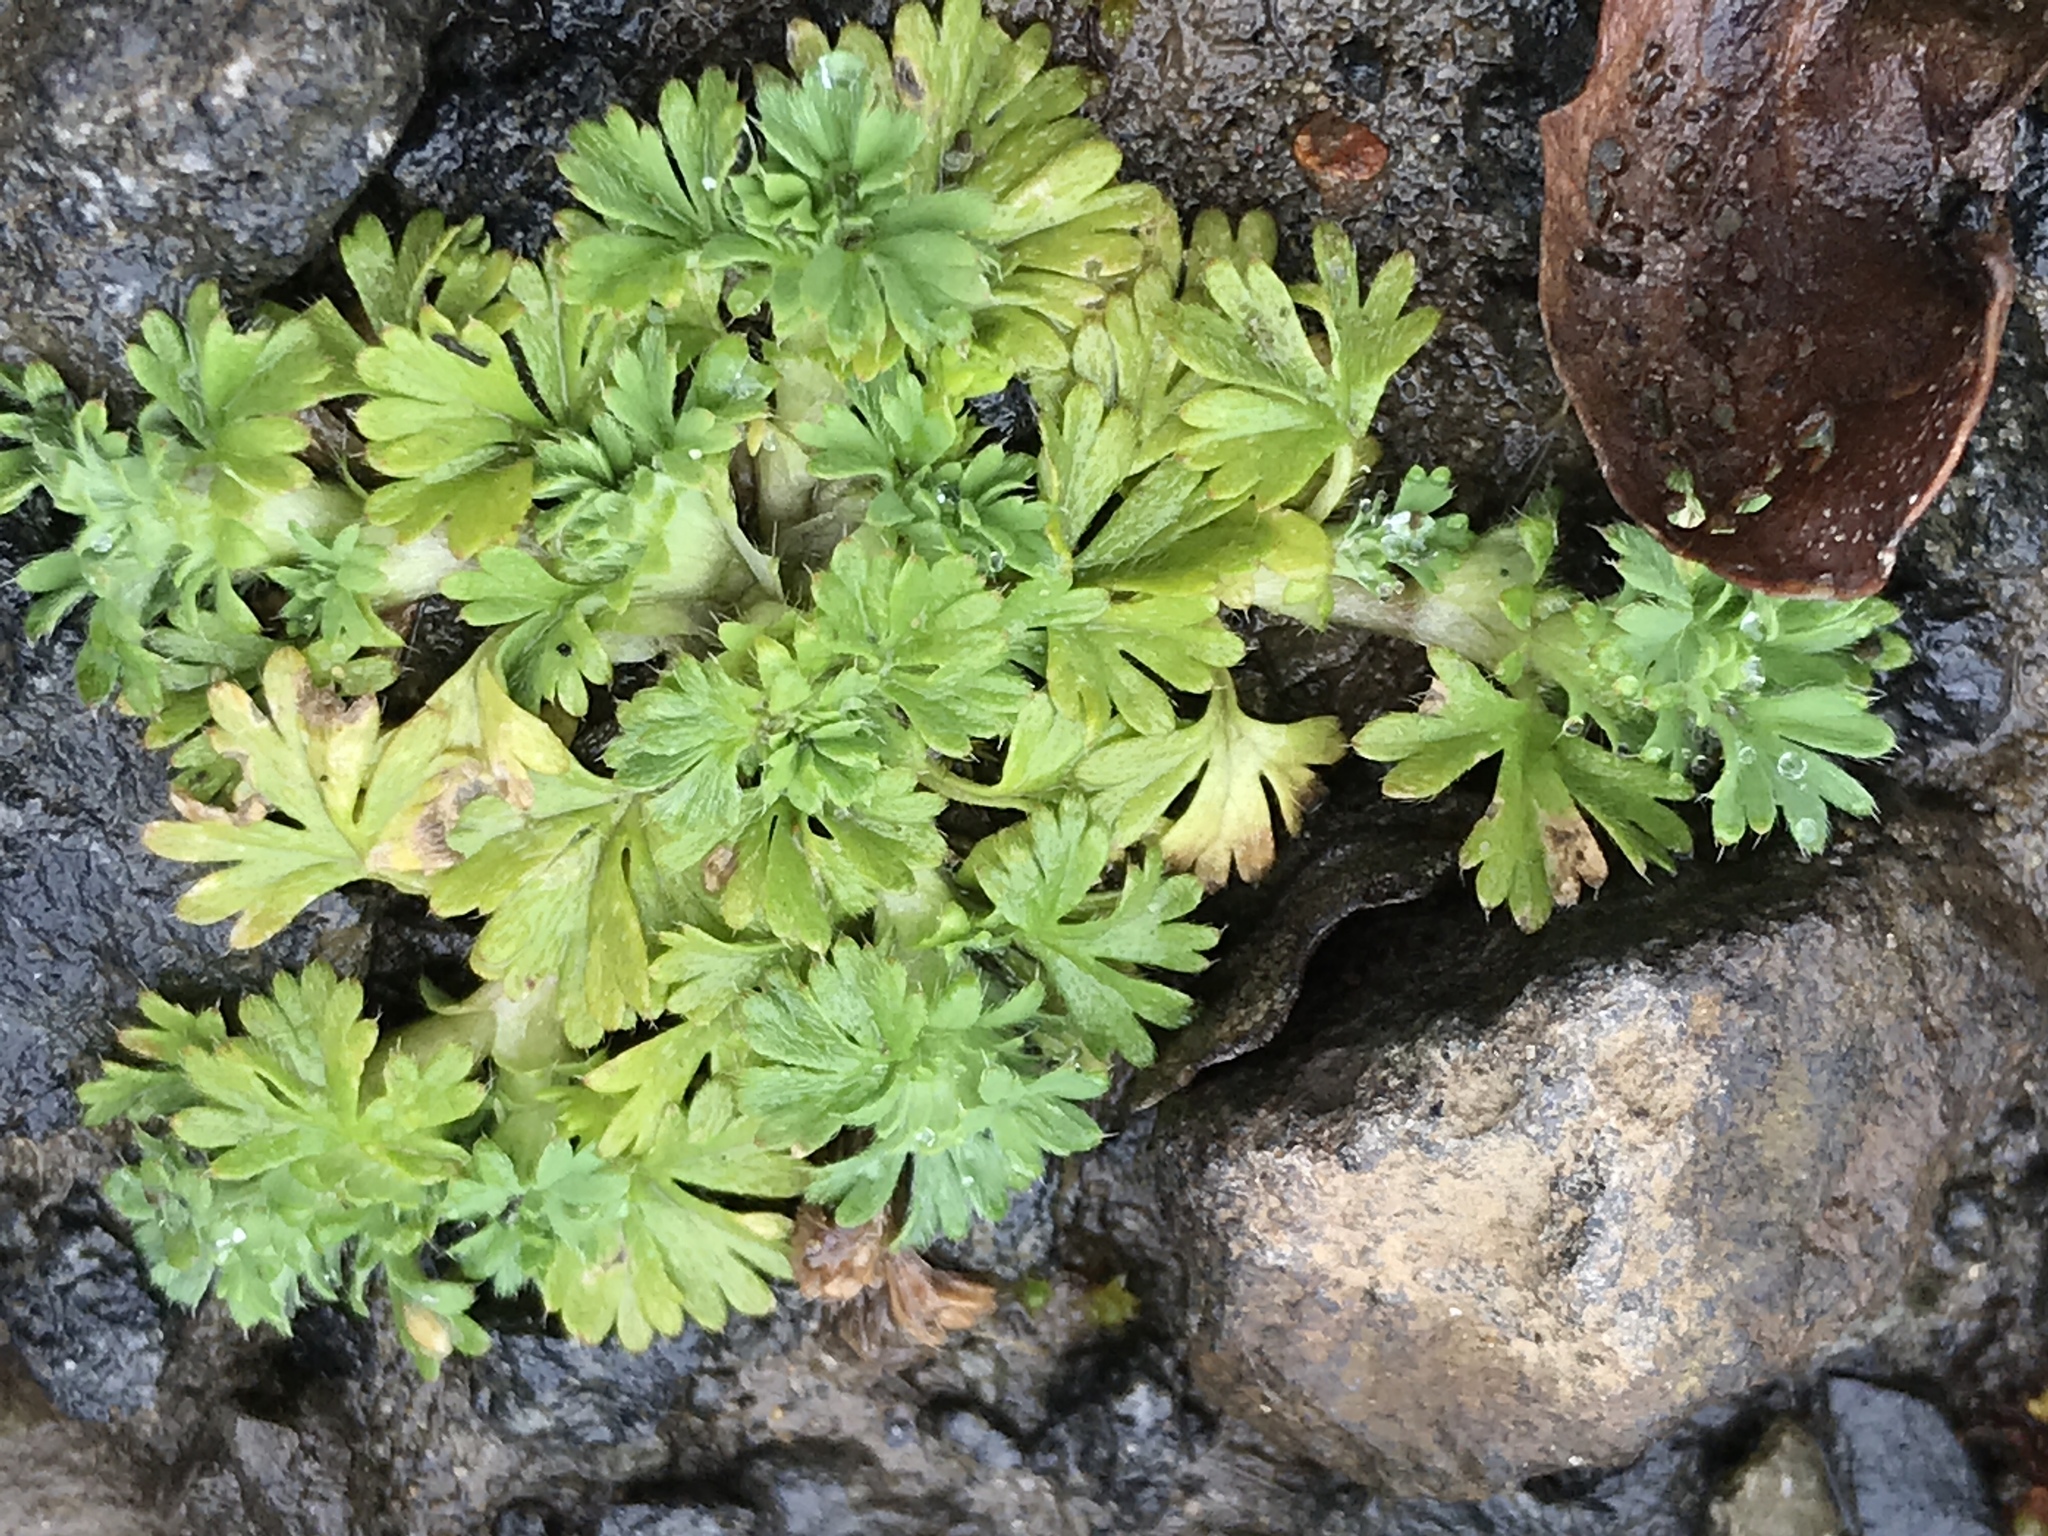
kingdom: Plantae
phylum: Tracheophyta
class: Magnoliopsida
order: Rosales
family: Rosaceae
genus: Aphanes
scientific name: Aphanes arvensis
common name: Parsley-piert
